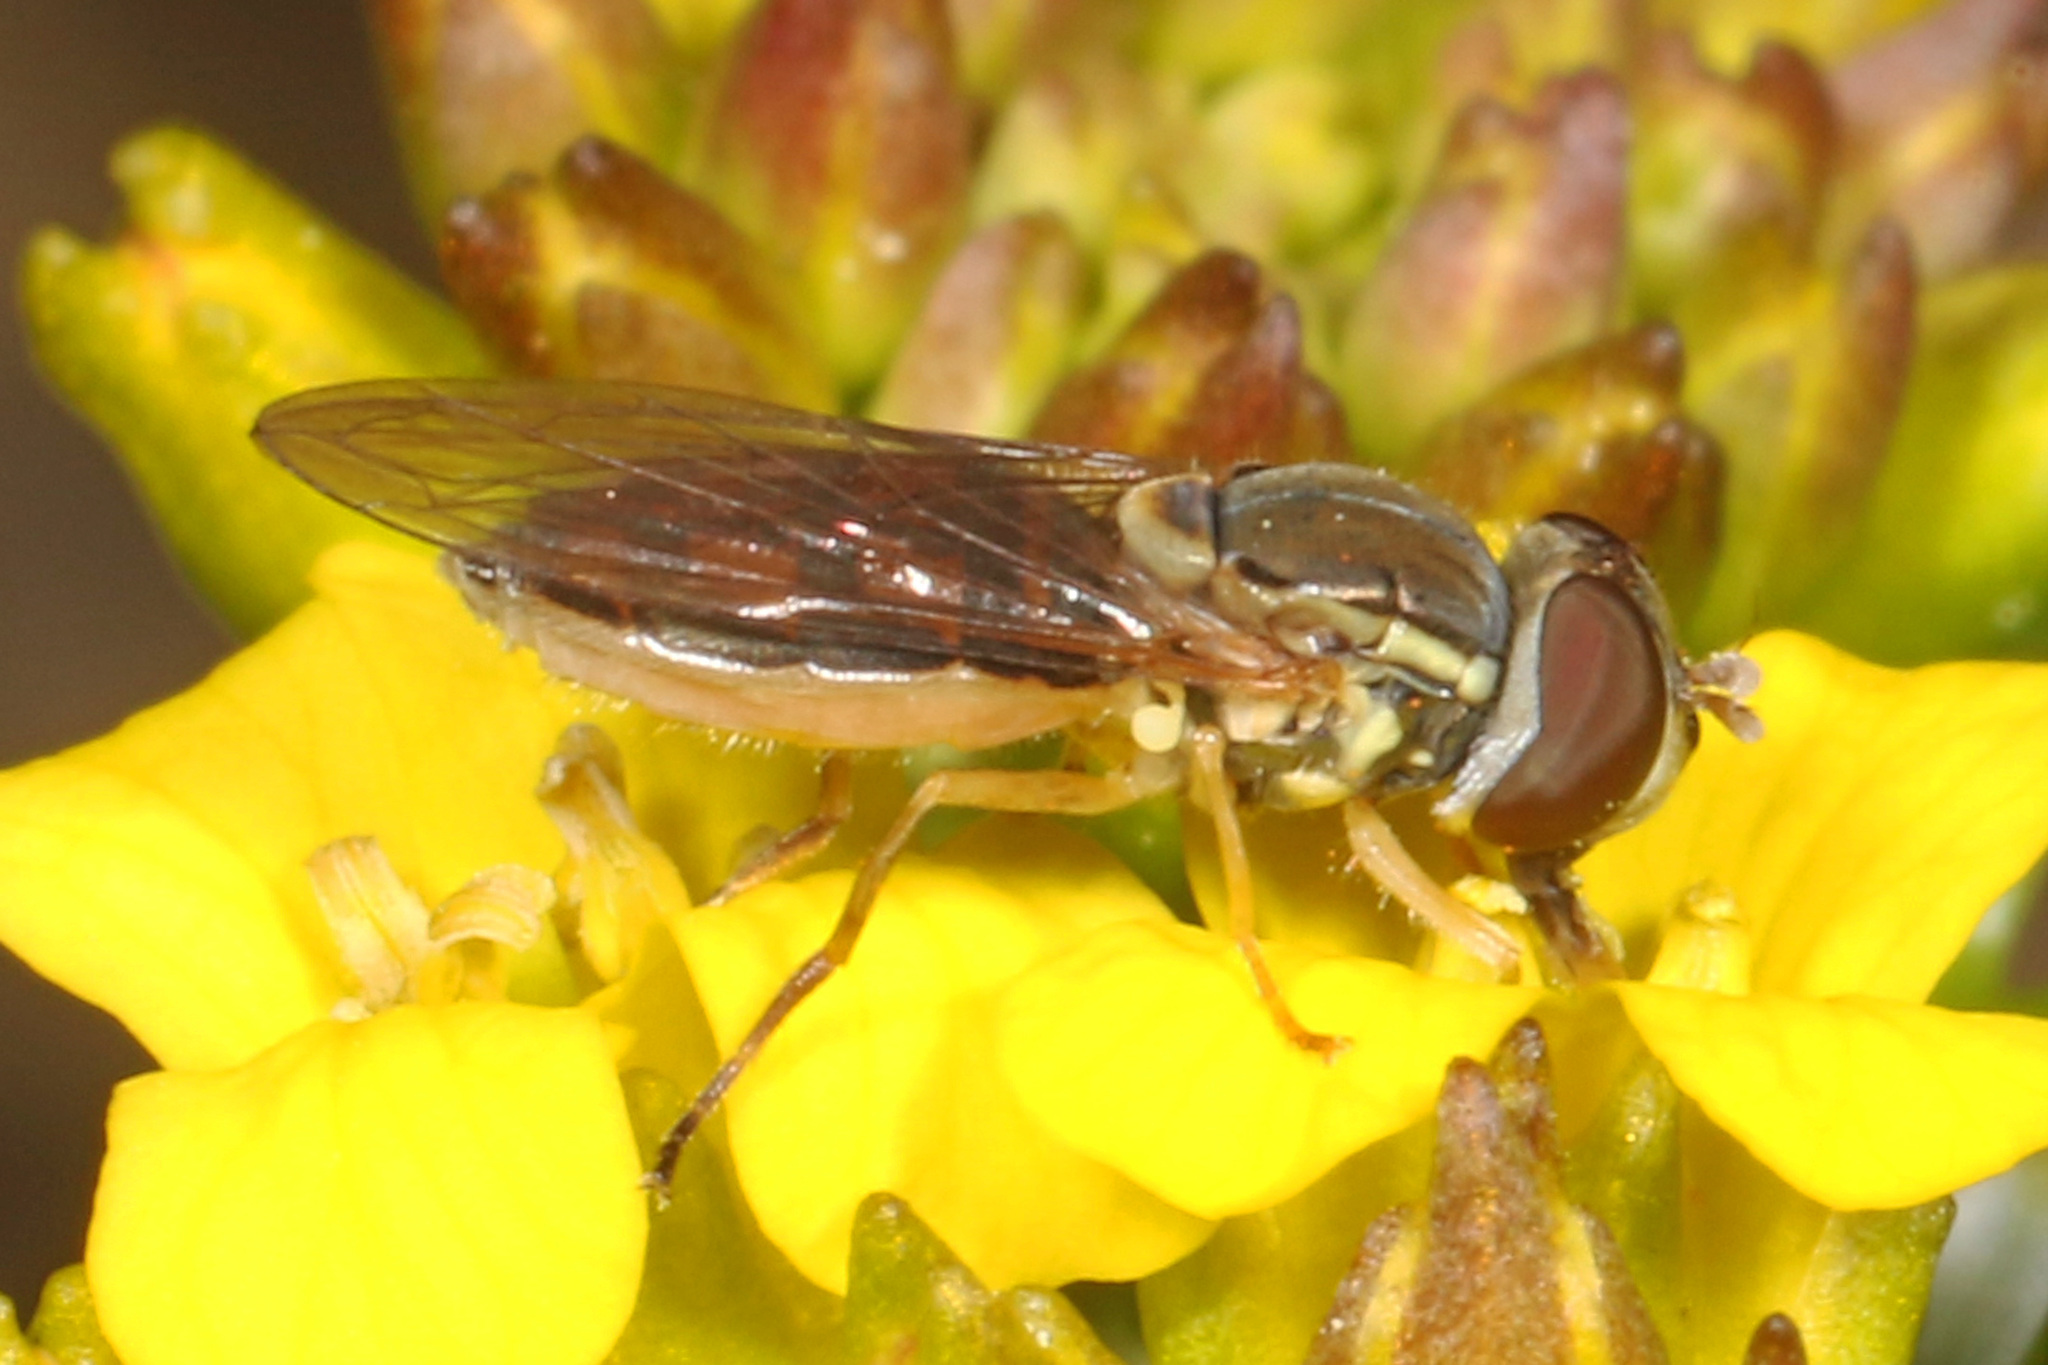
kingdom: Animalia
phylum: Arthropoda
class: Insecta
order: Diptera
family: Syrphidae
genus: Toxomerus
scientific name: Toxomerus marginatus
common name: Syrphid fly
